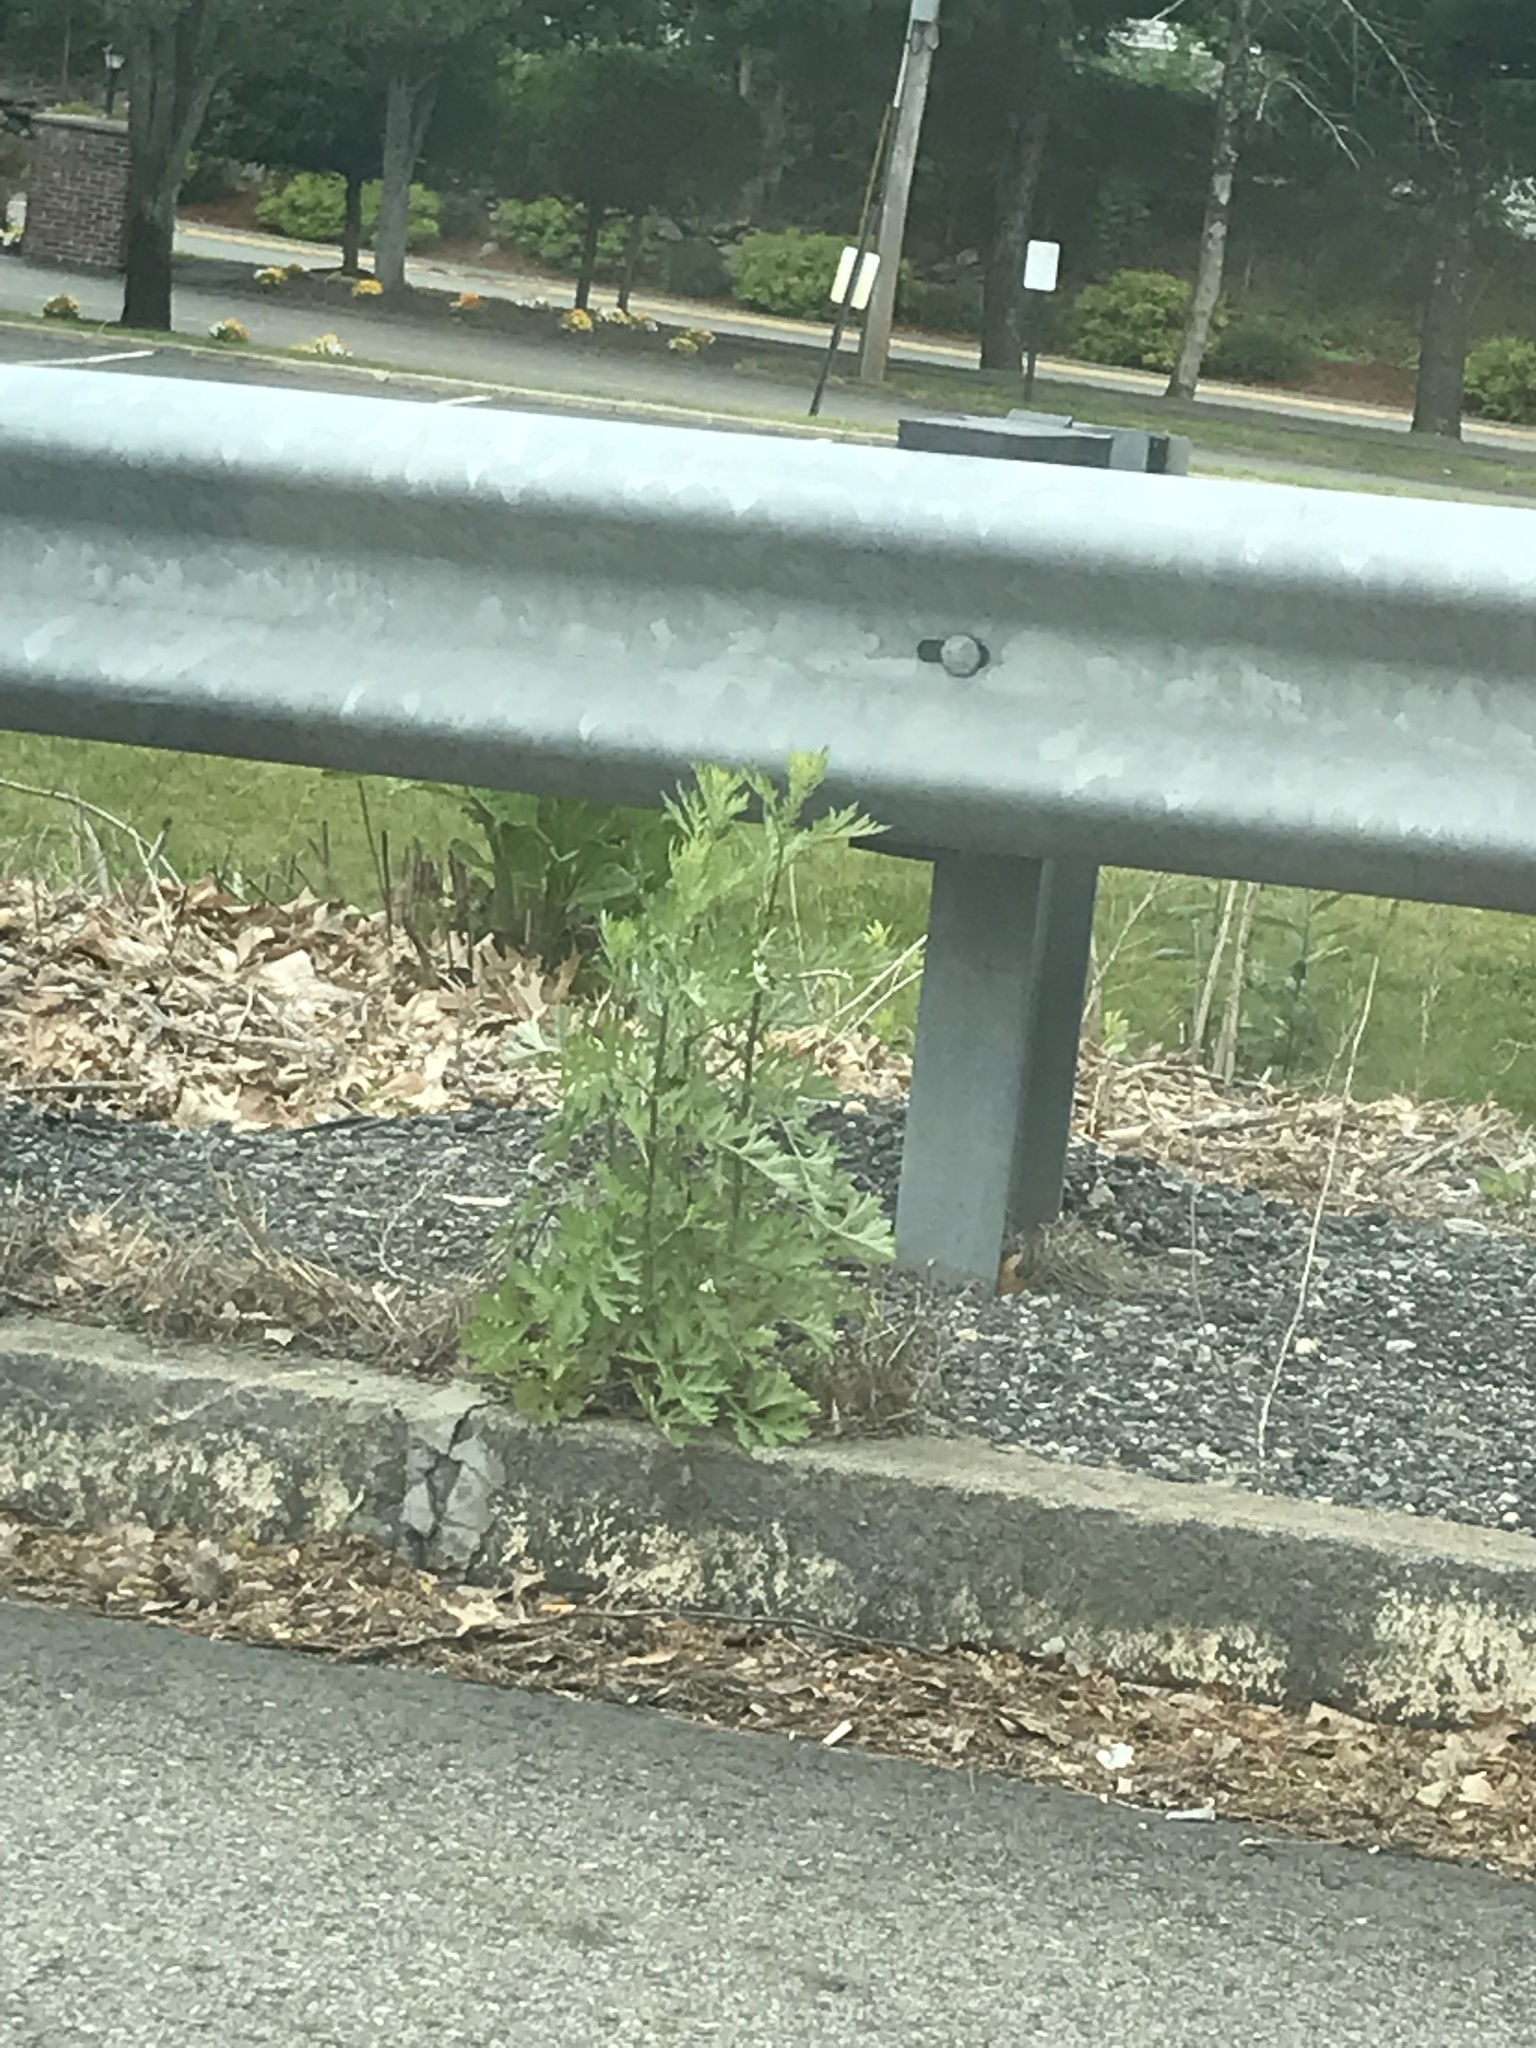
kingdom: Plantae
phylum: Tracheophyta
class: Magnoliopsida
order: Asterales
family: Asteraceae
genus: Artemisia
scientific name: Artemisia vulgaris
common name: Mugwort
